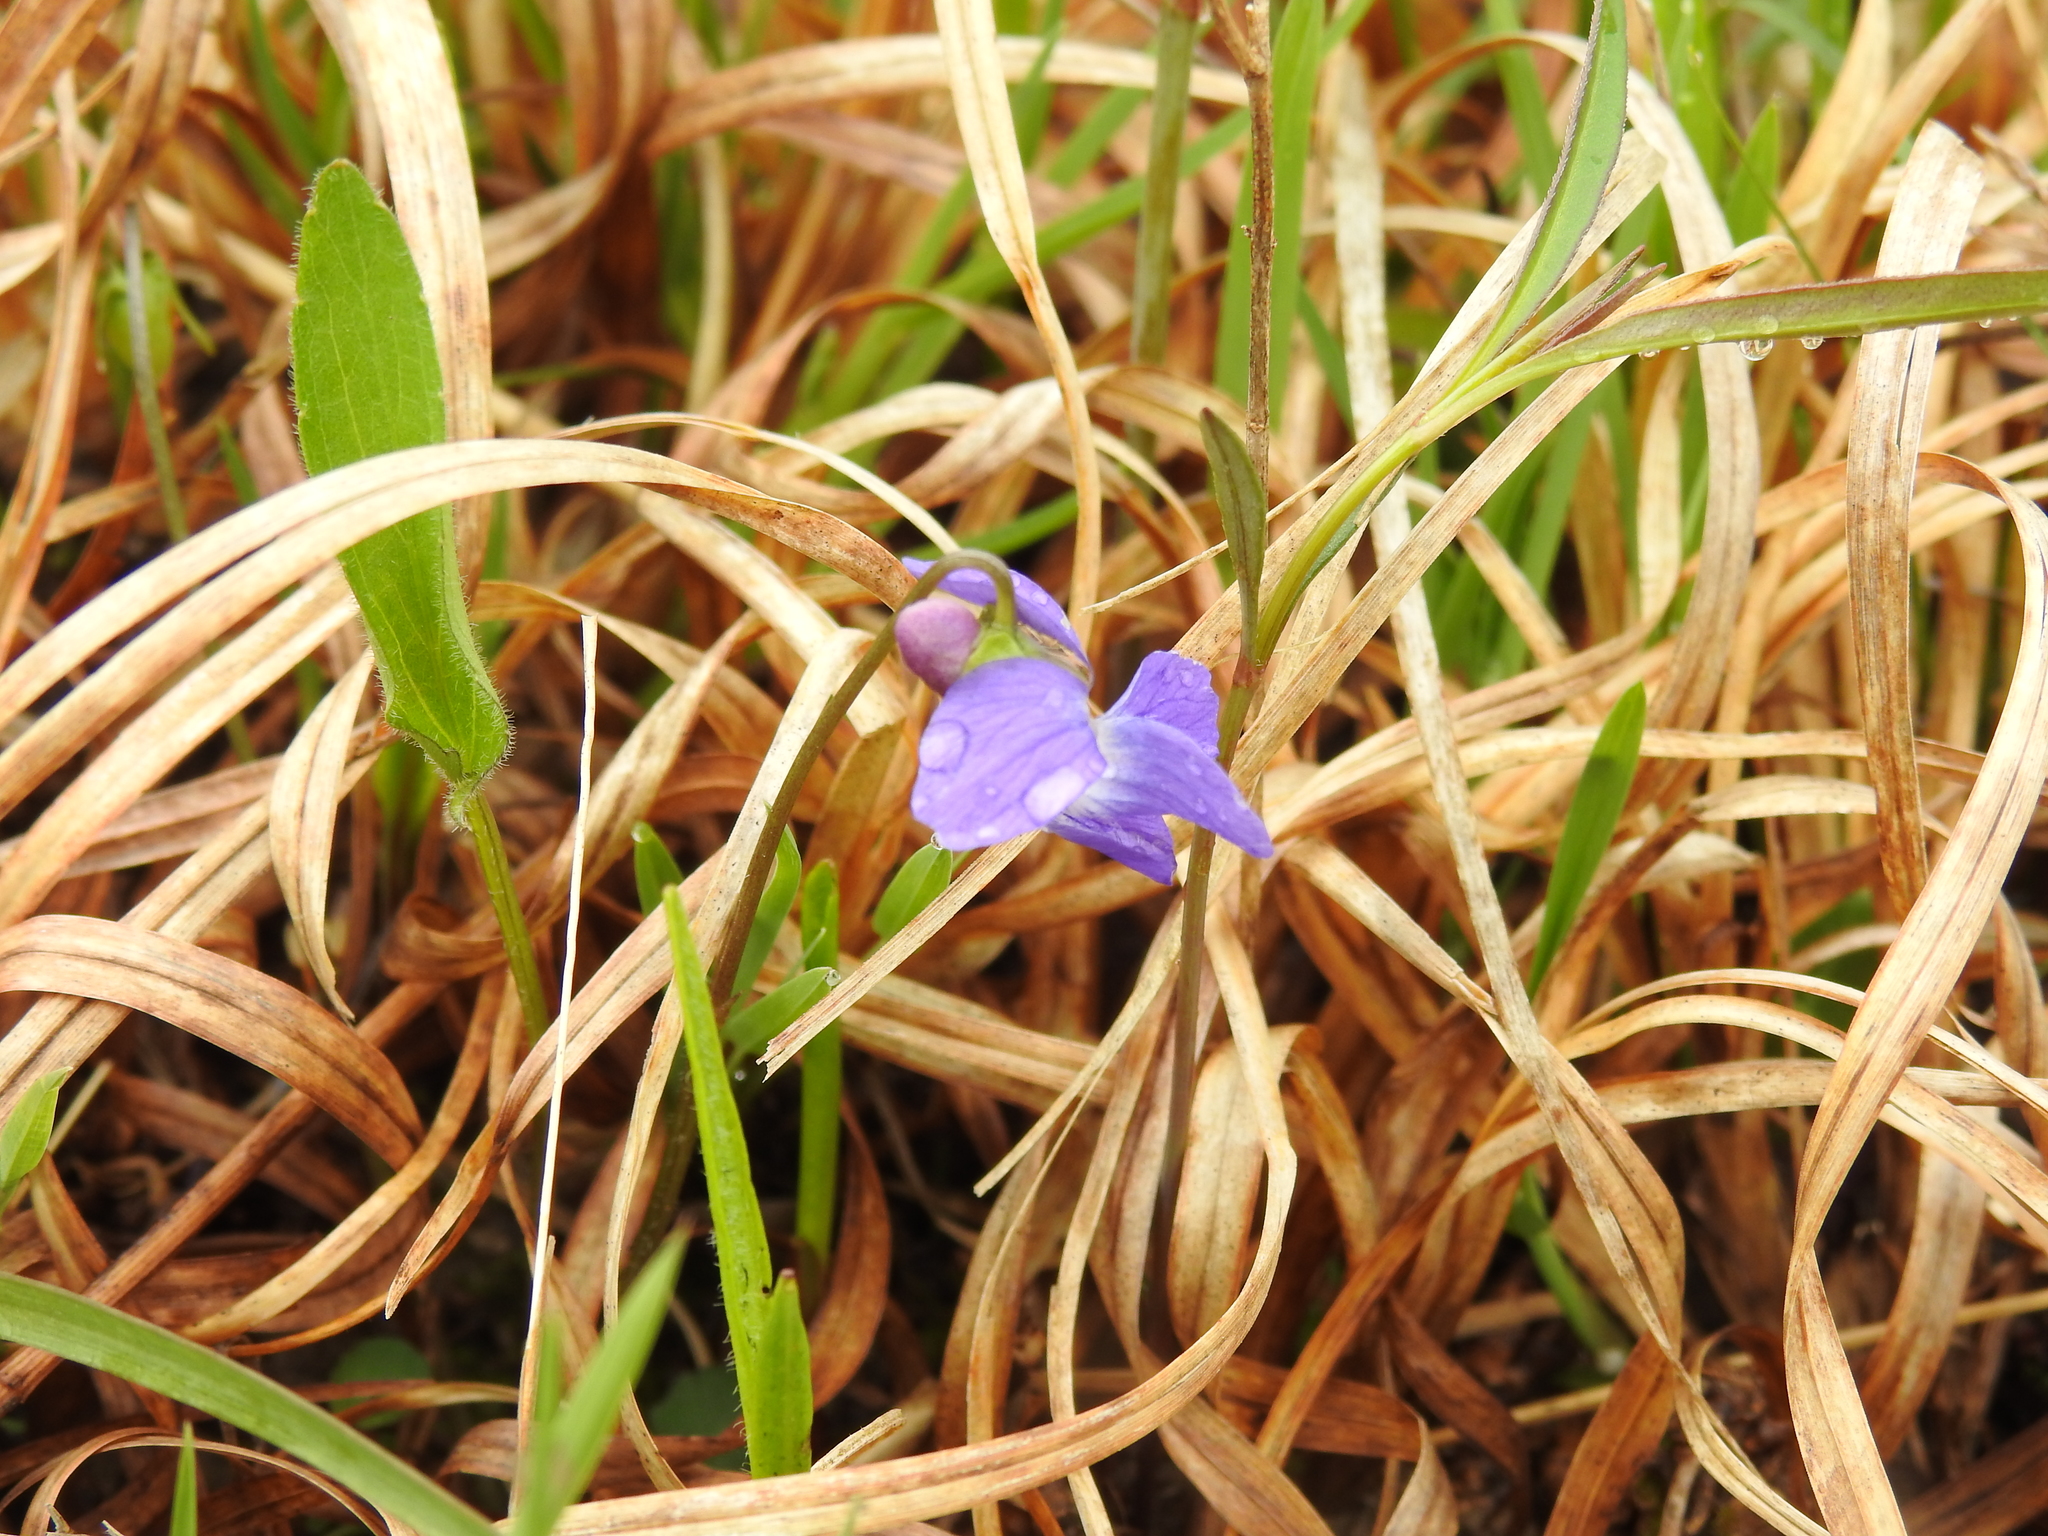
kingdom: Plantae
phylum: Tracheophyta
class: Magnoliopsida
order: Malpighiales
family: Violaceae
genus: Viola
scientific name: Viola sagittata
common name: Arrowhead violet
